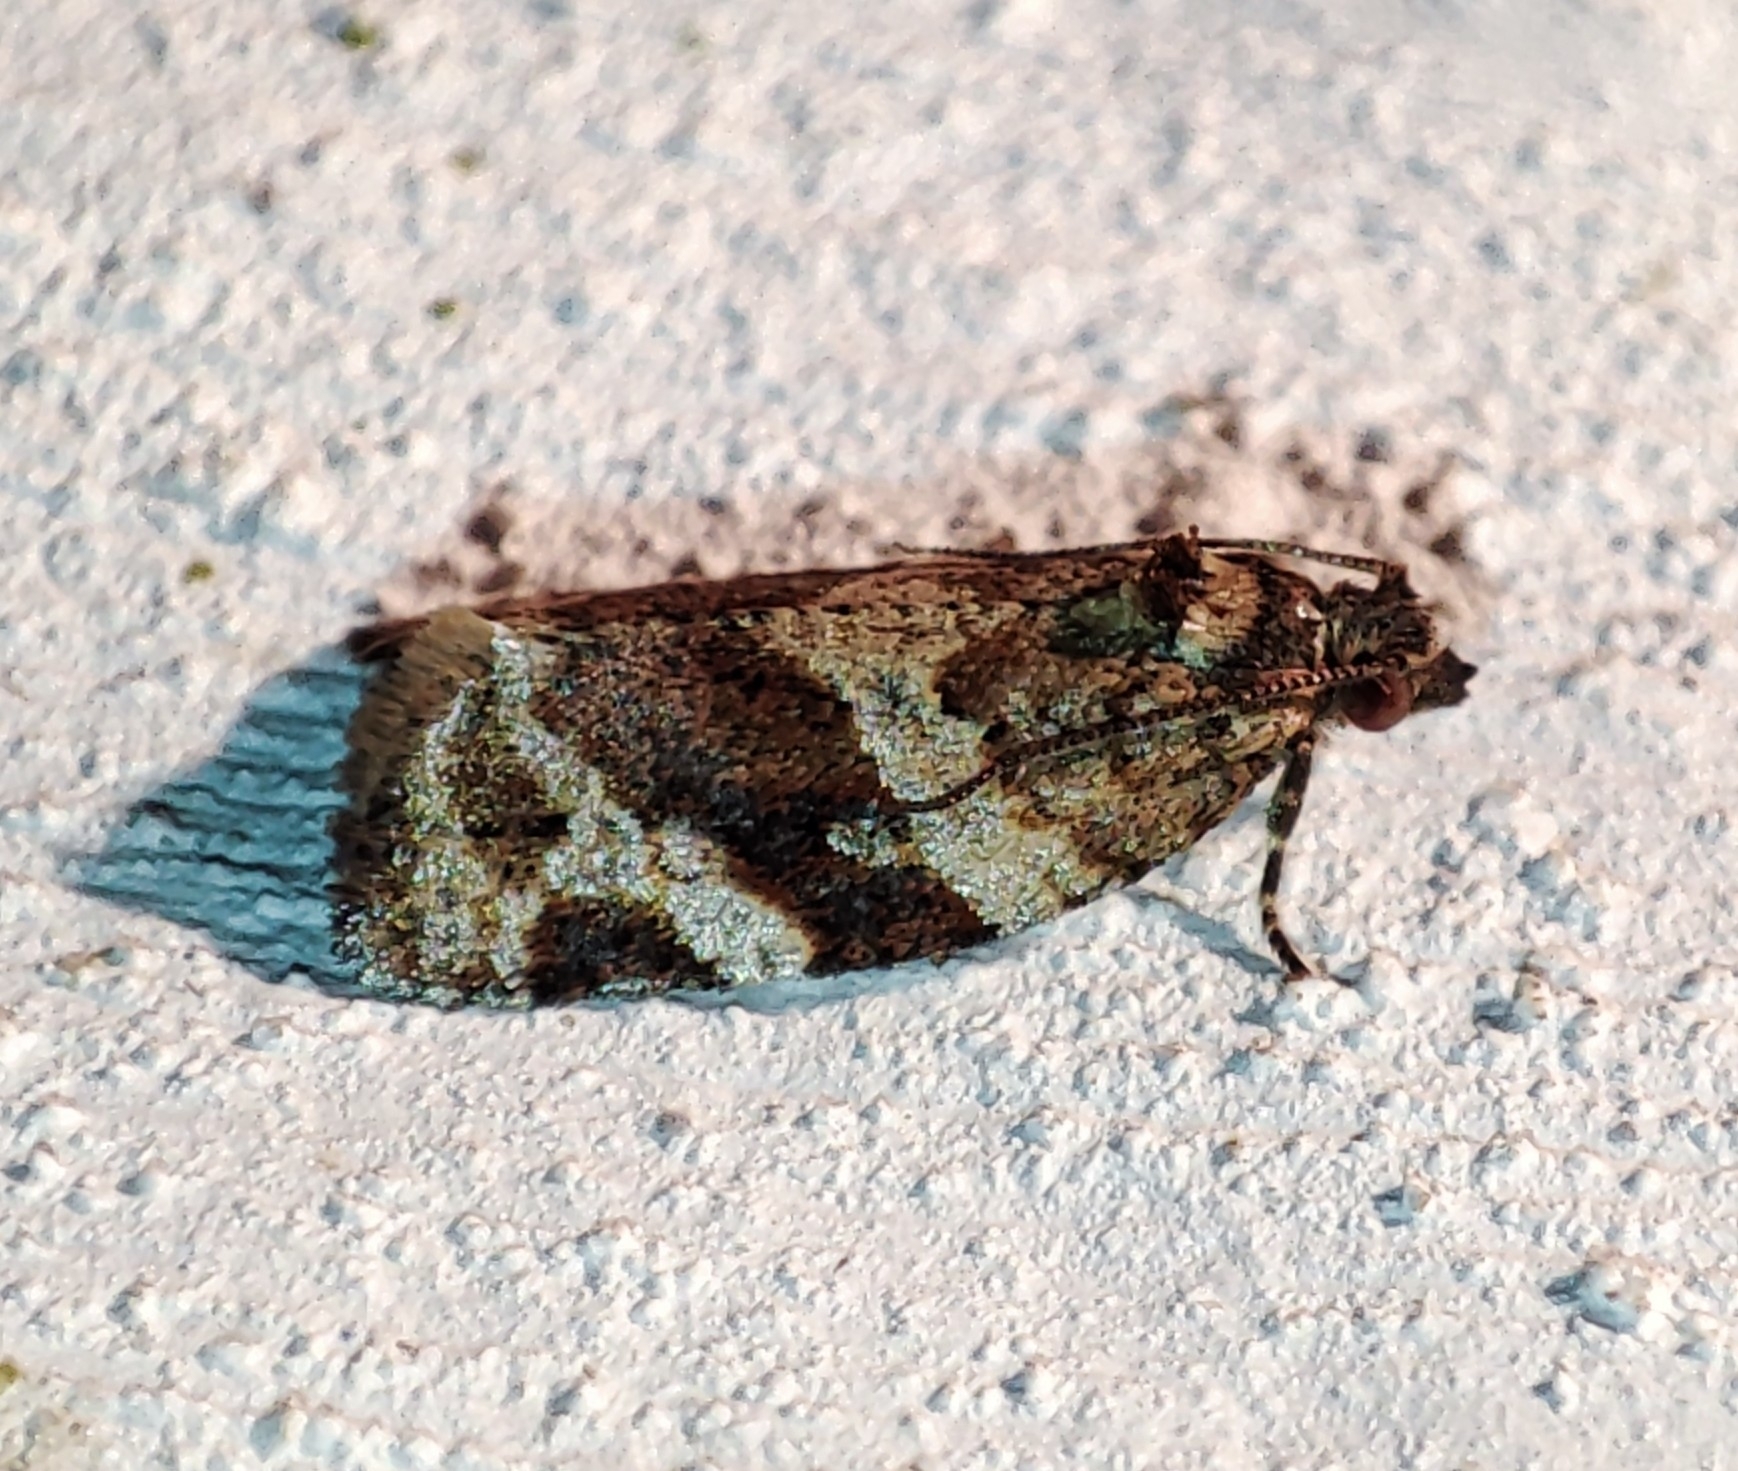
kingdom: Animalia
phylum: Arthropoda
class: Insecta
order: Lepidoptera
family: Tortricidae
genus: Argyrotaenia
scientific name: Argyrotaenia ljungiana
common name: Heather twist
